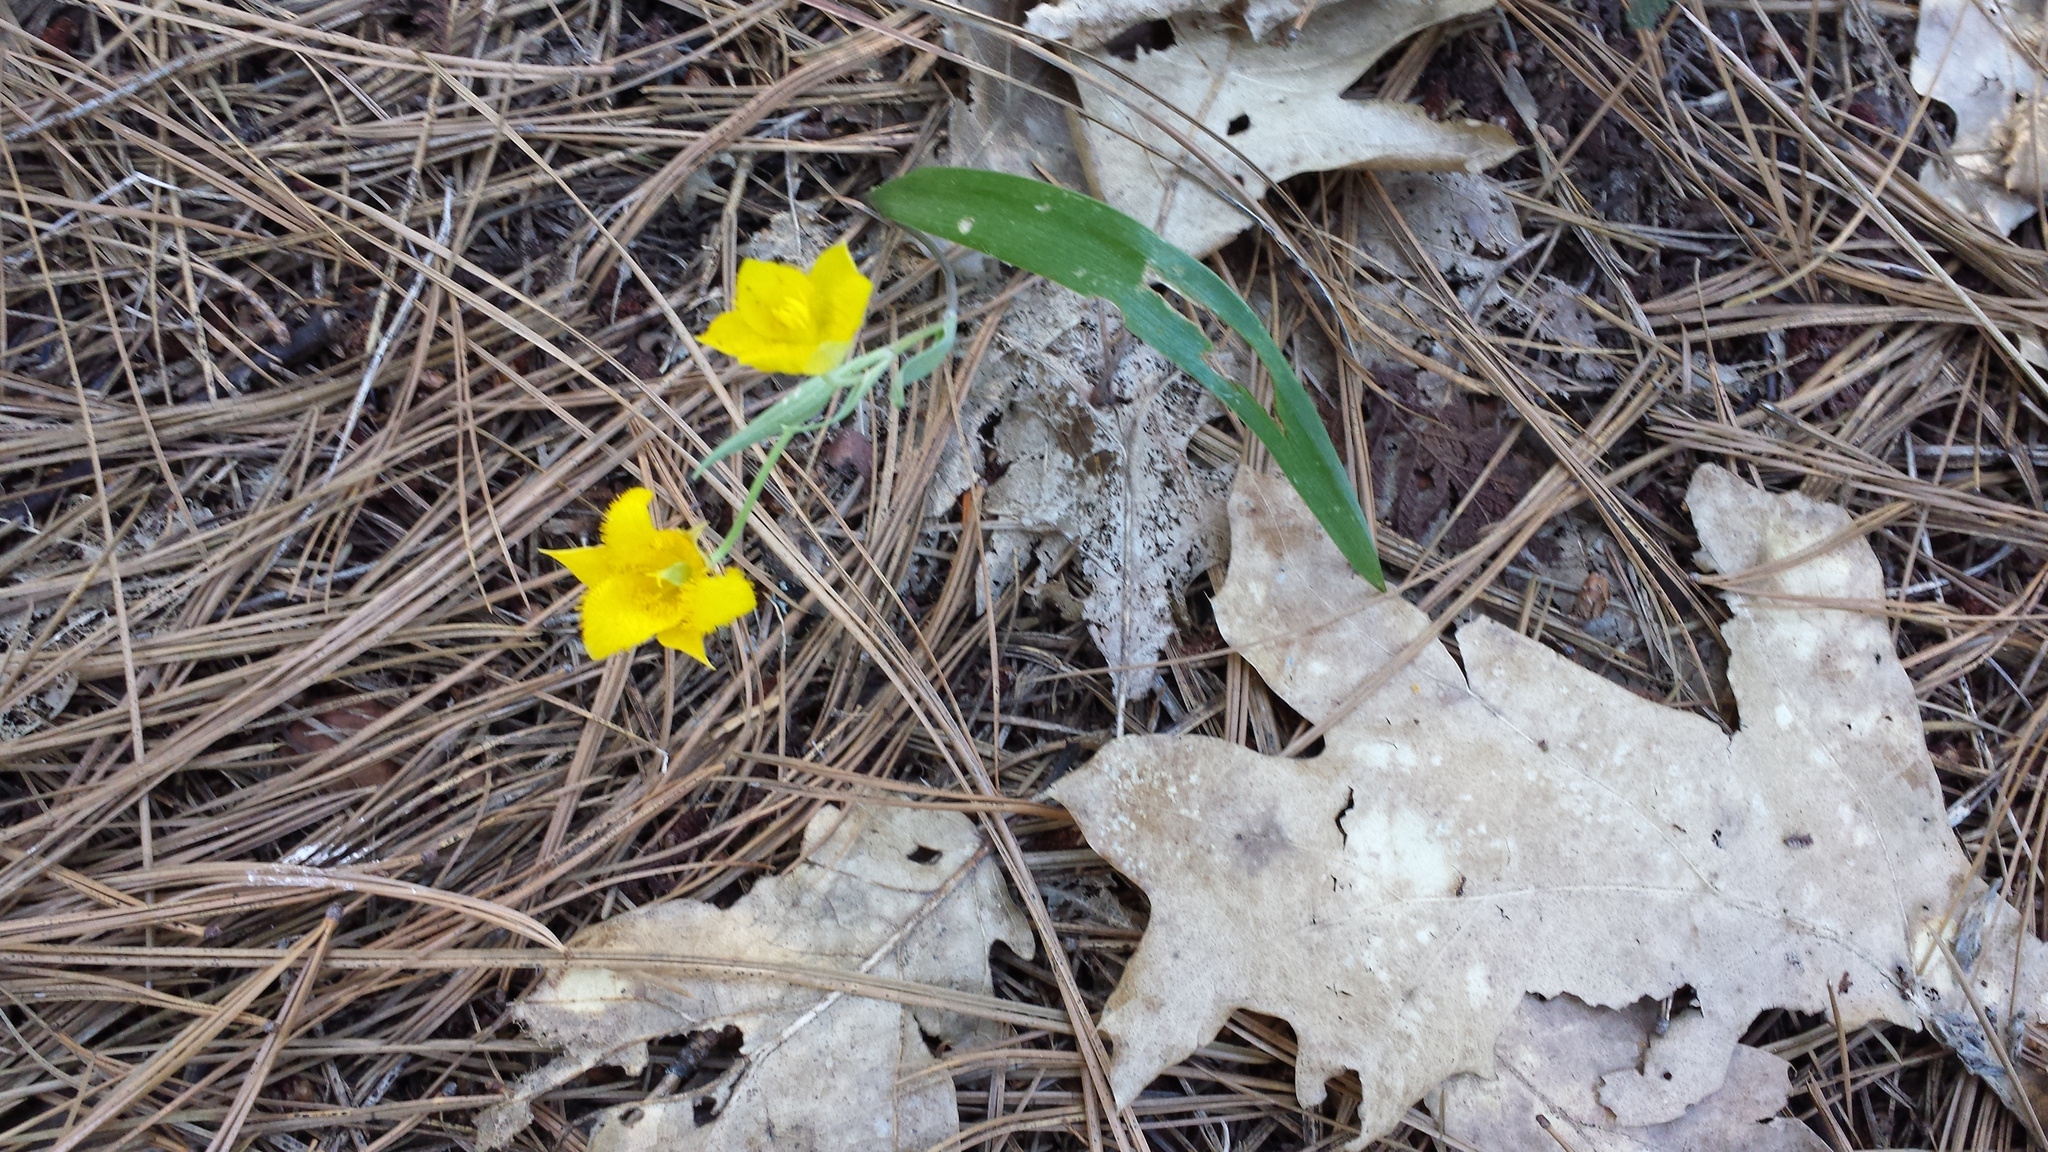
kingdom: Plantae
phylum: Tracheophyta
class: Liliopsida
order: Liliales
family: Liliaceae
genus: Calochortus
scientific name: Calochortus monophyllus
